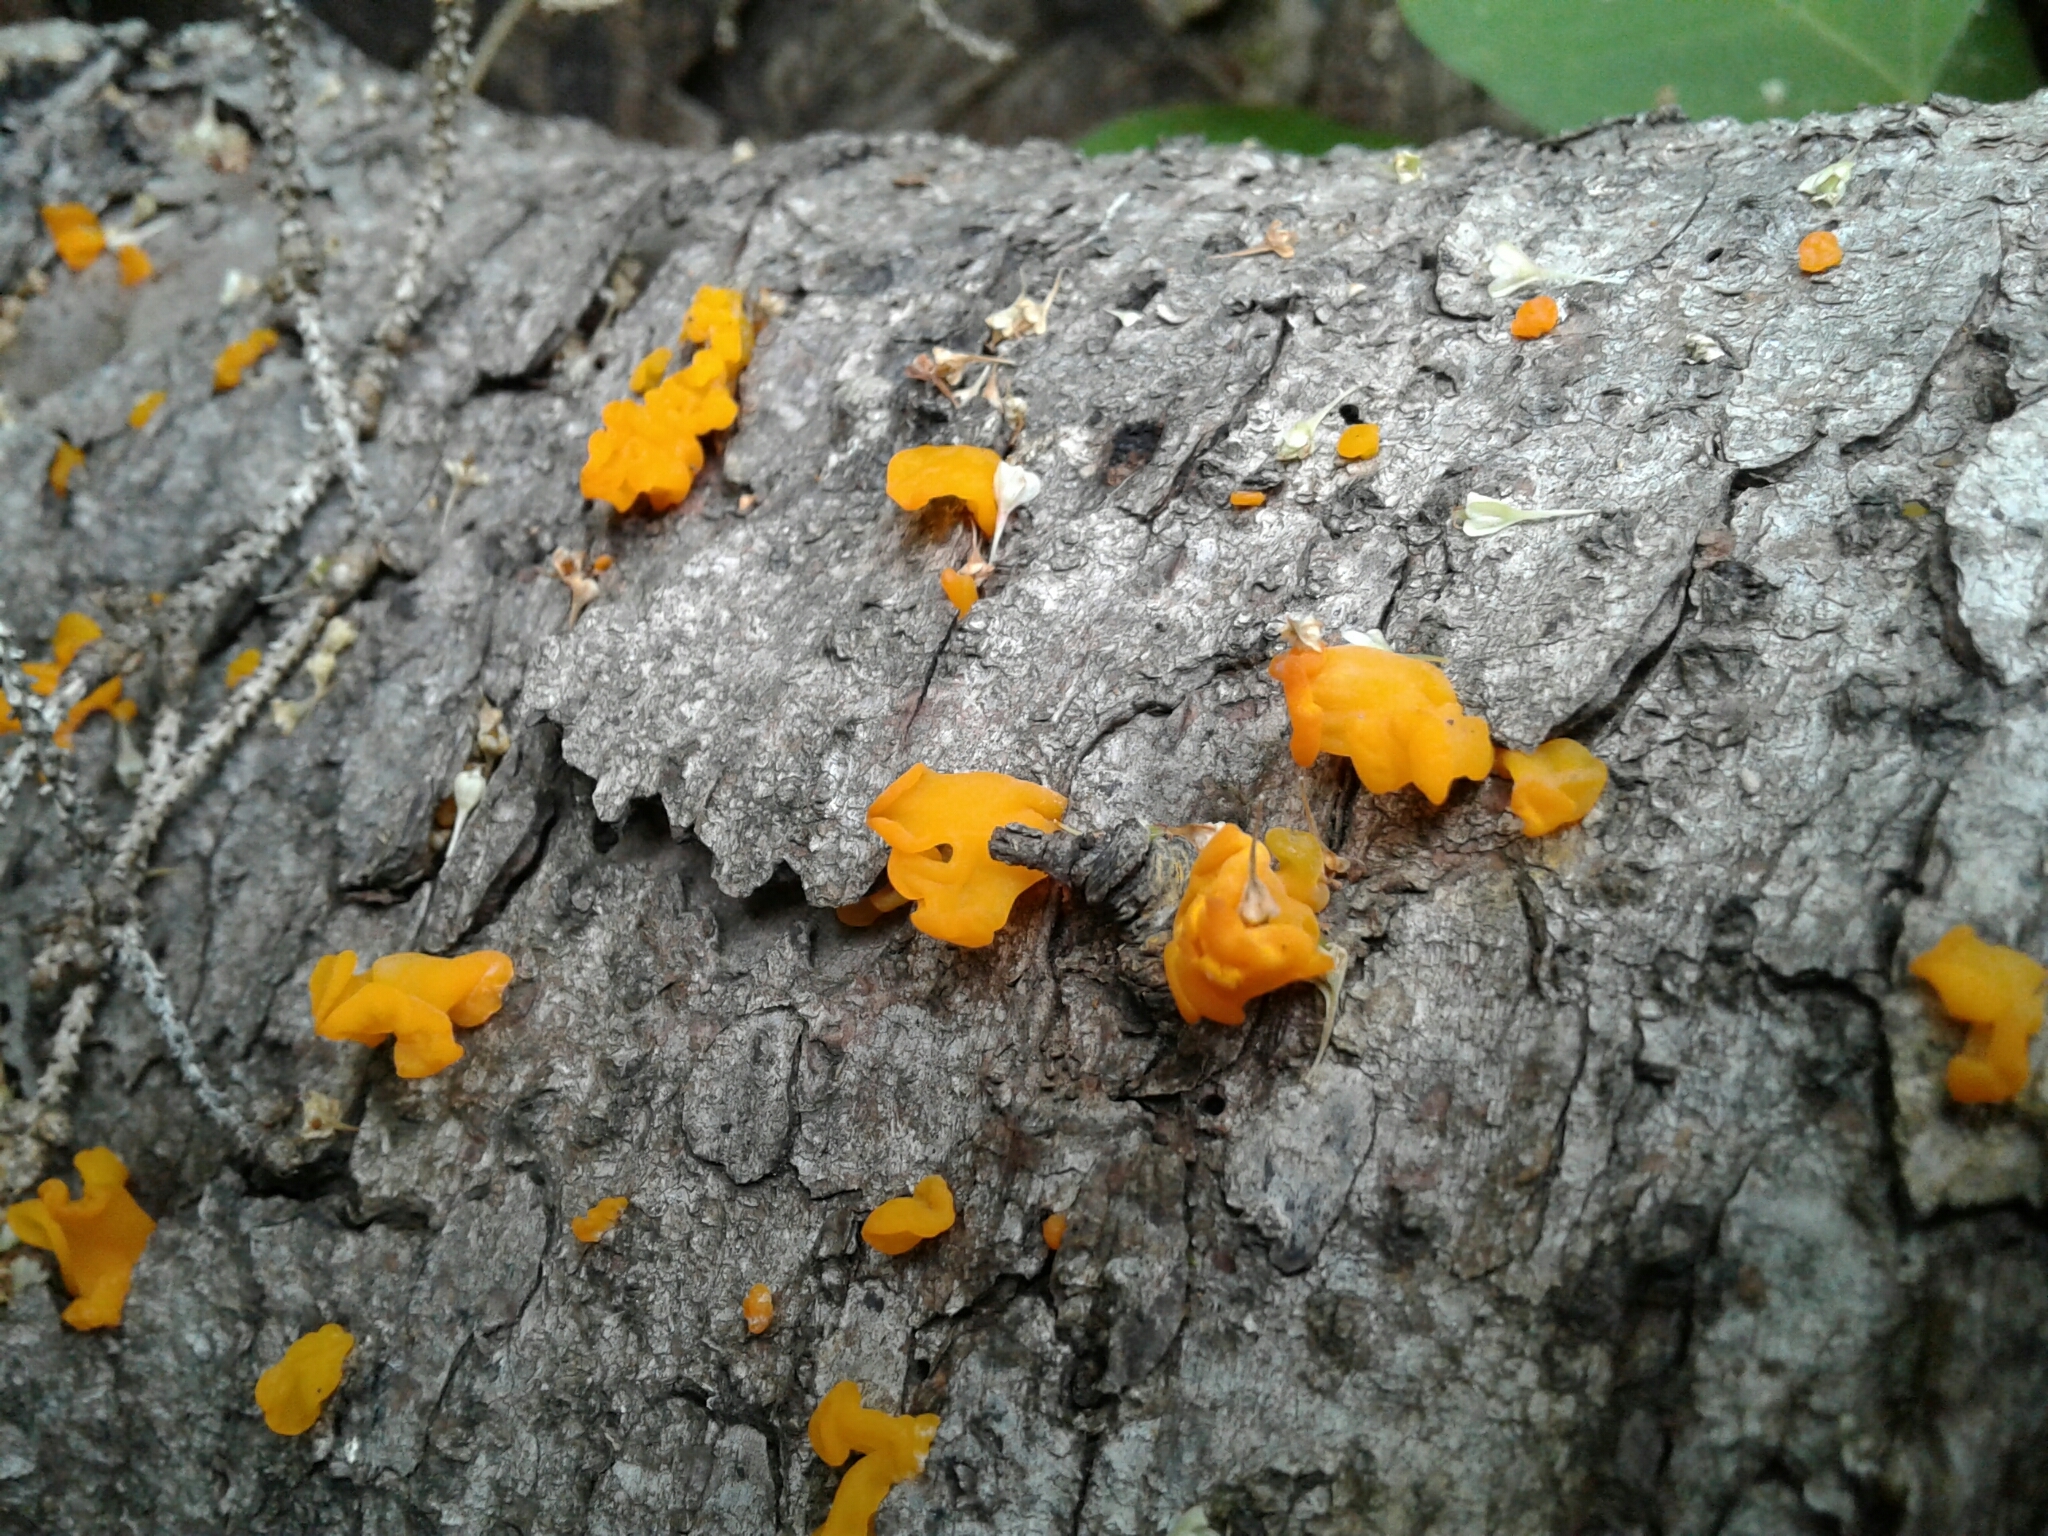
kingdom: Fungi
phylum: Basidiomycota
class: Dacrymycetes
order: Dacrymycetales
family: Dacrymycetaceae
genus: Dacrymyces
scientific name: Dacrymyces chrysospermus
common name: Orange jelly spot
